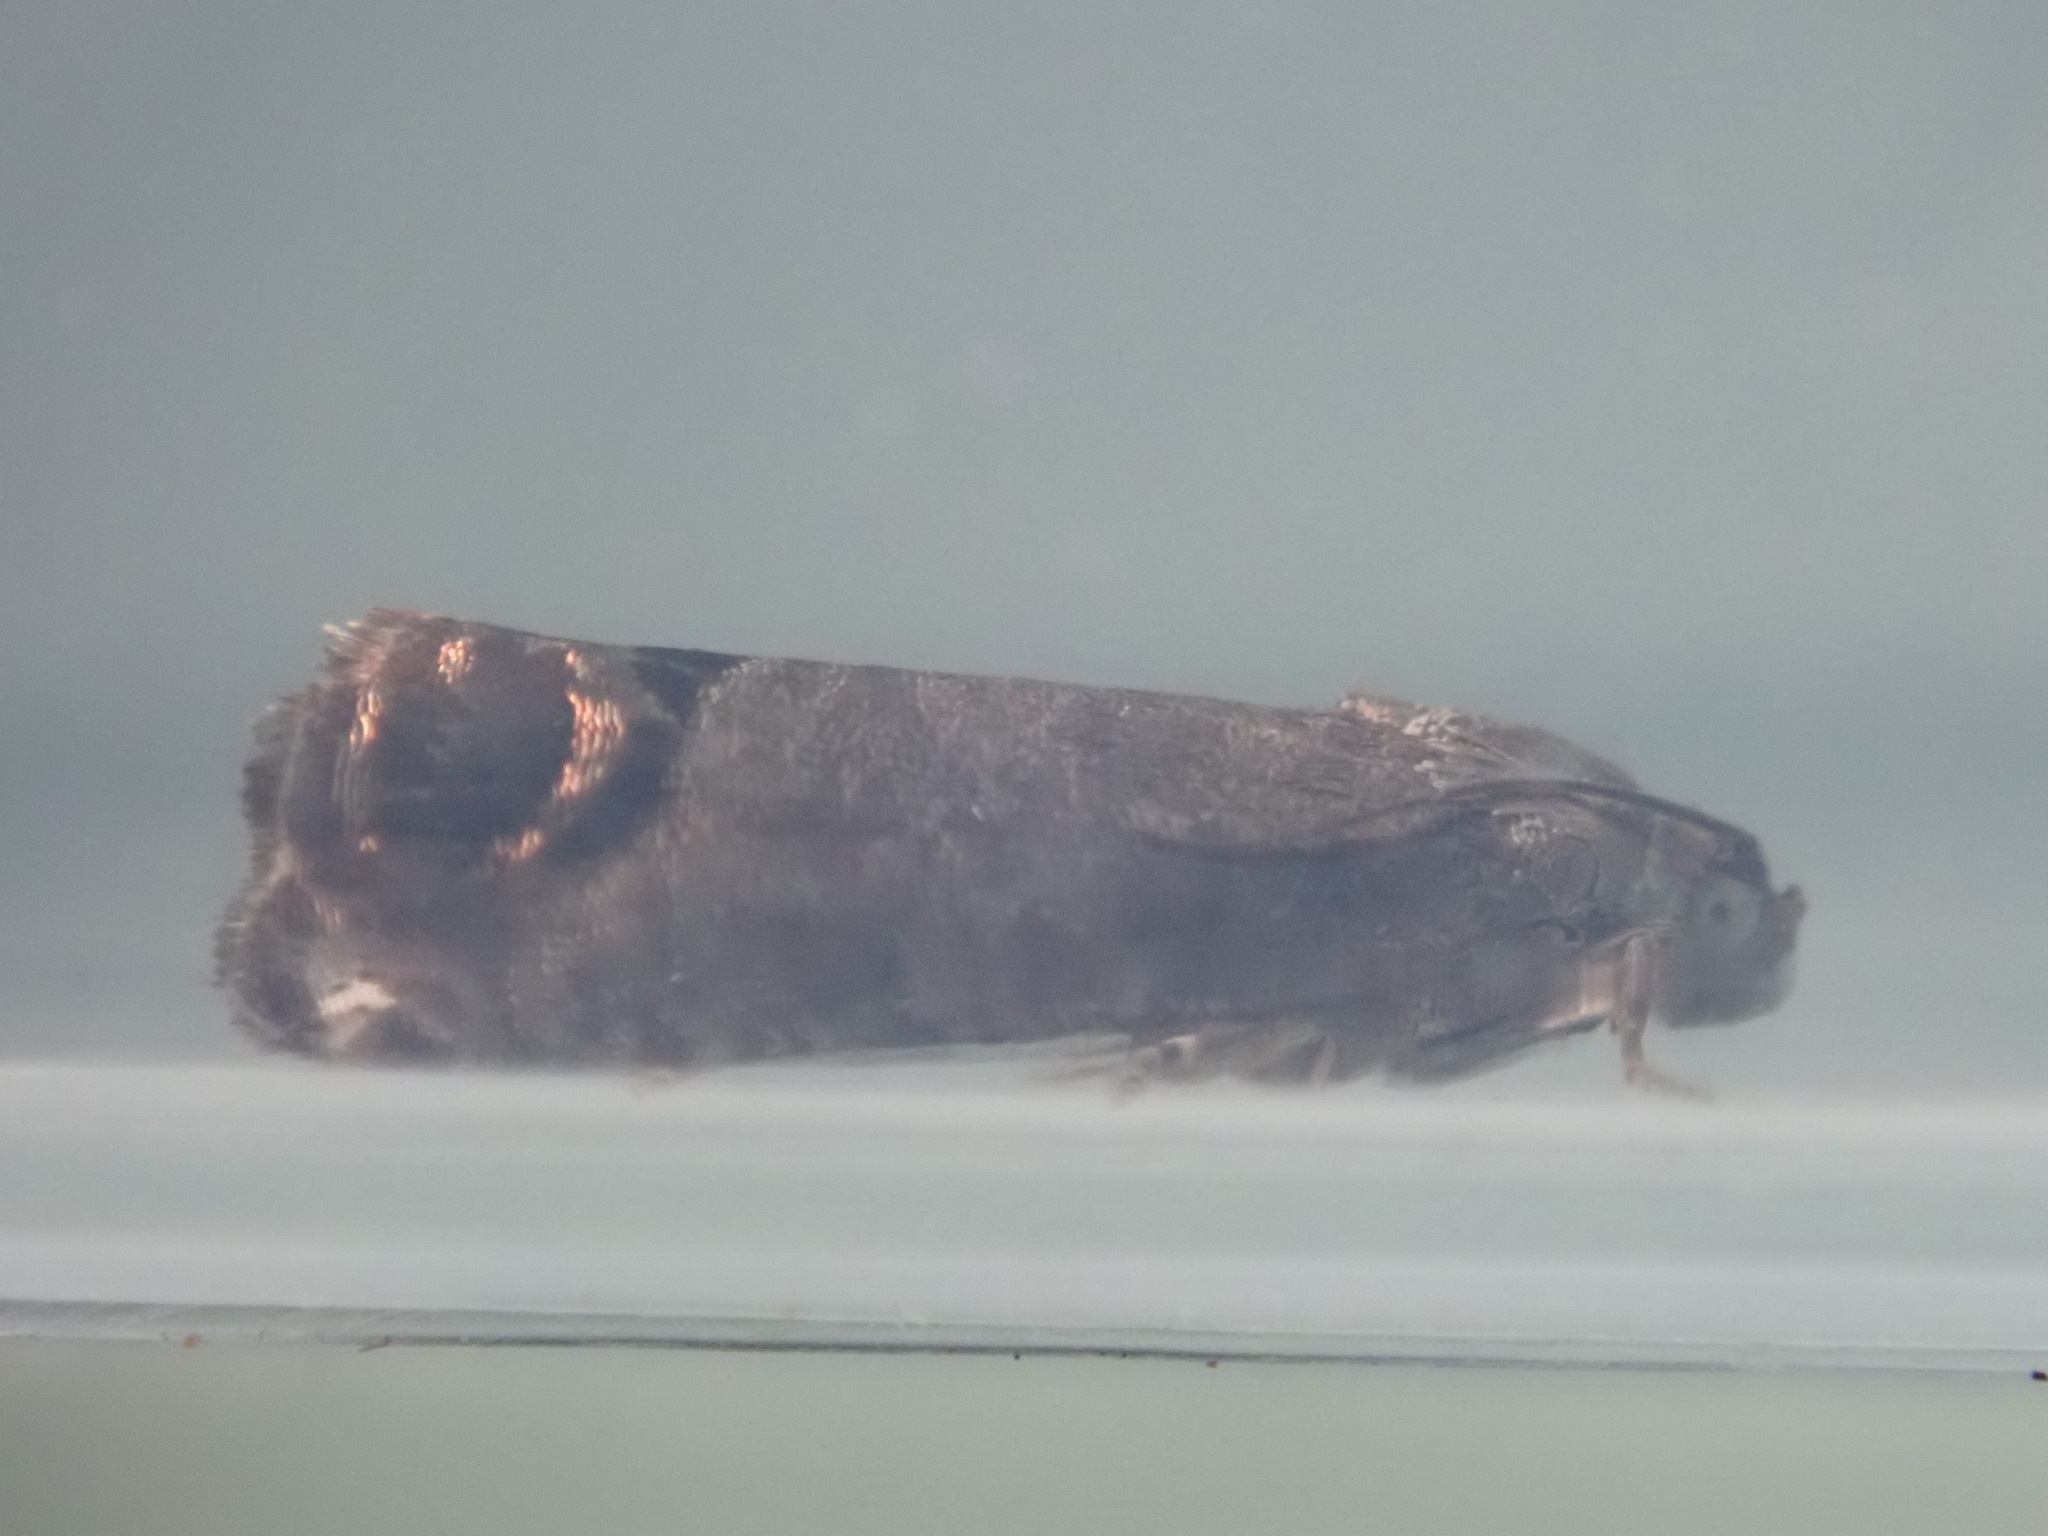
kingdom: Animalia
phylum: Arthropoda
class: Insecta
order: Lepidoptera
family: Tortricidae
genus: Cydia
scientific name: Cydia pomonella
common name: Codling moth
